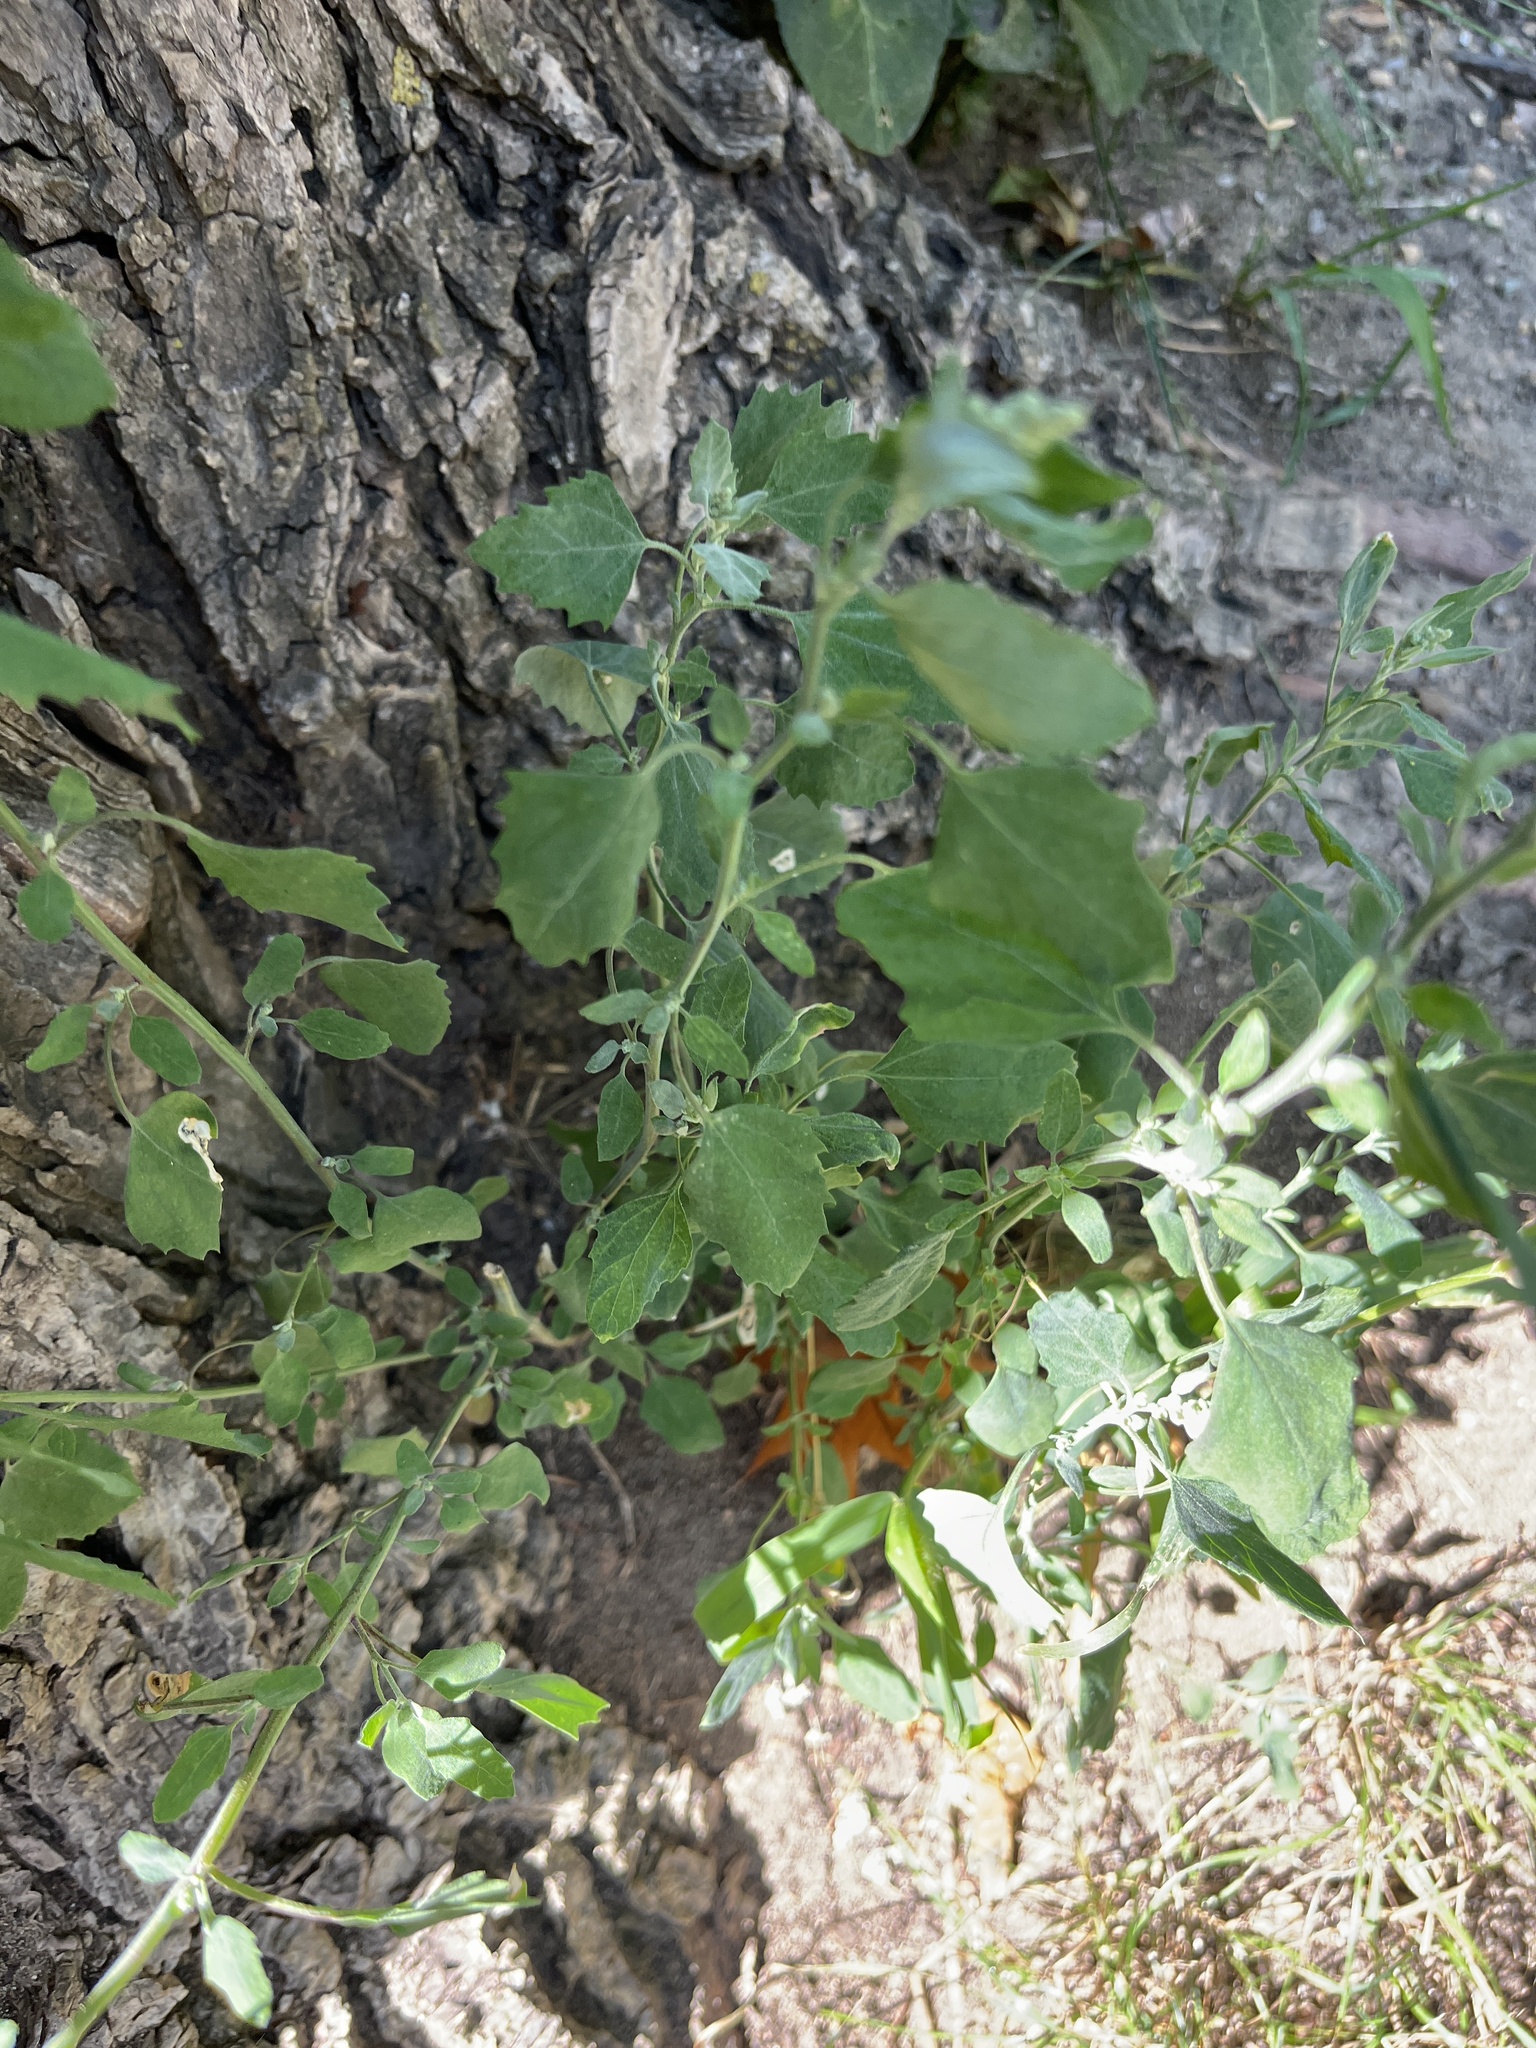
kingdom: Plantae
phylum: Tracheophyta
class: Magnoliopsida
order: Caryophyllales
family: Amaranthaceae
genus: Chenopodium
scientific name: Chenopodium album
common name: Fat-hen
